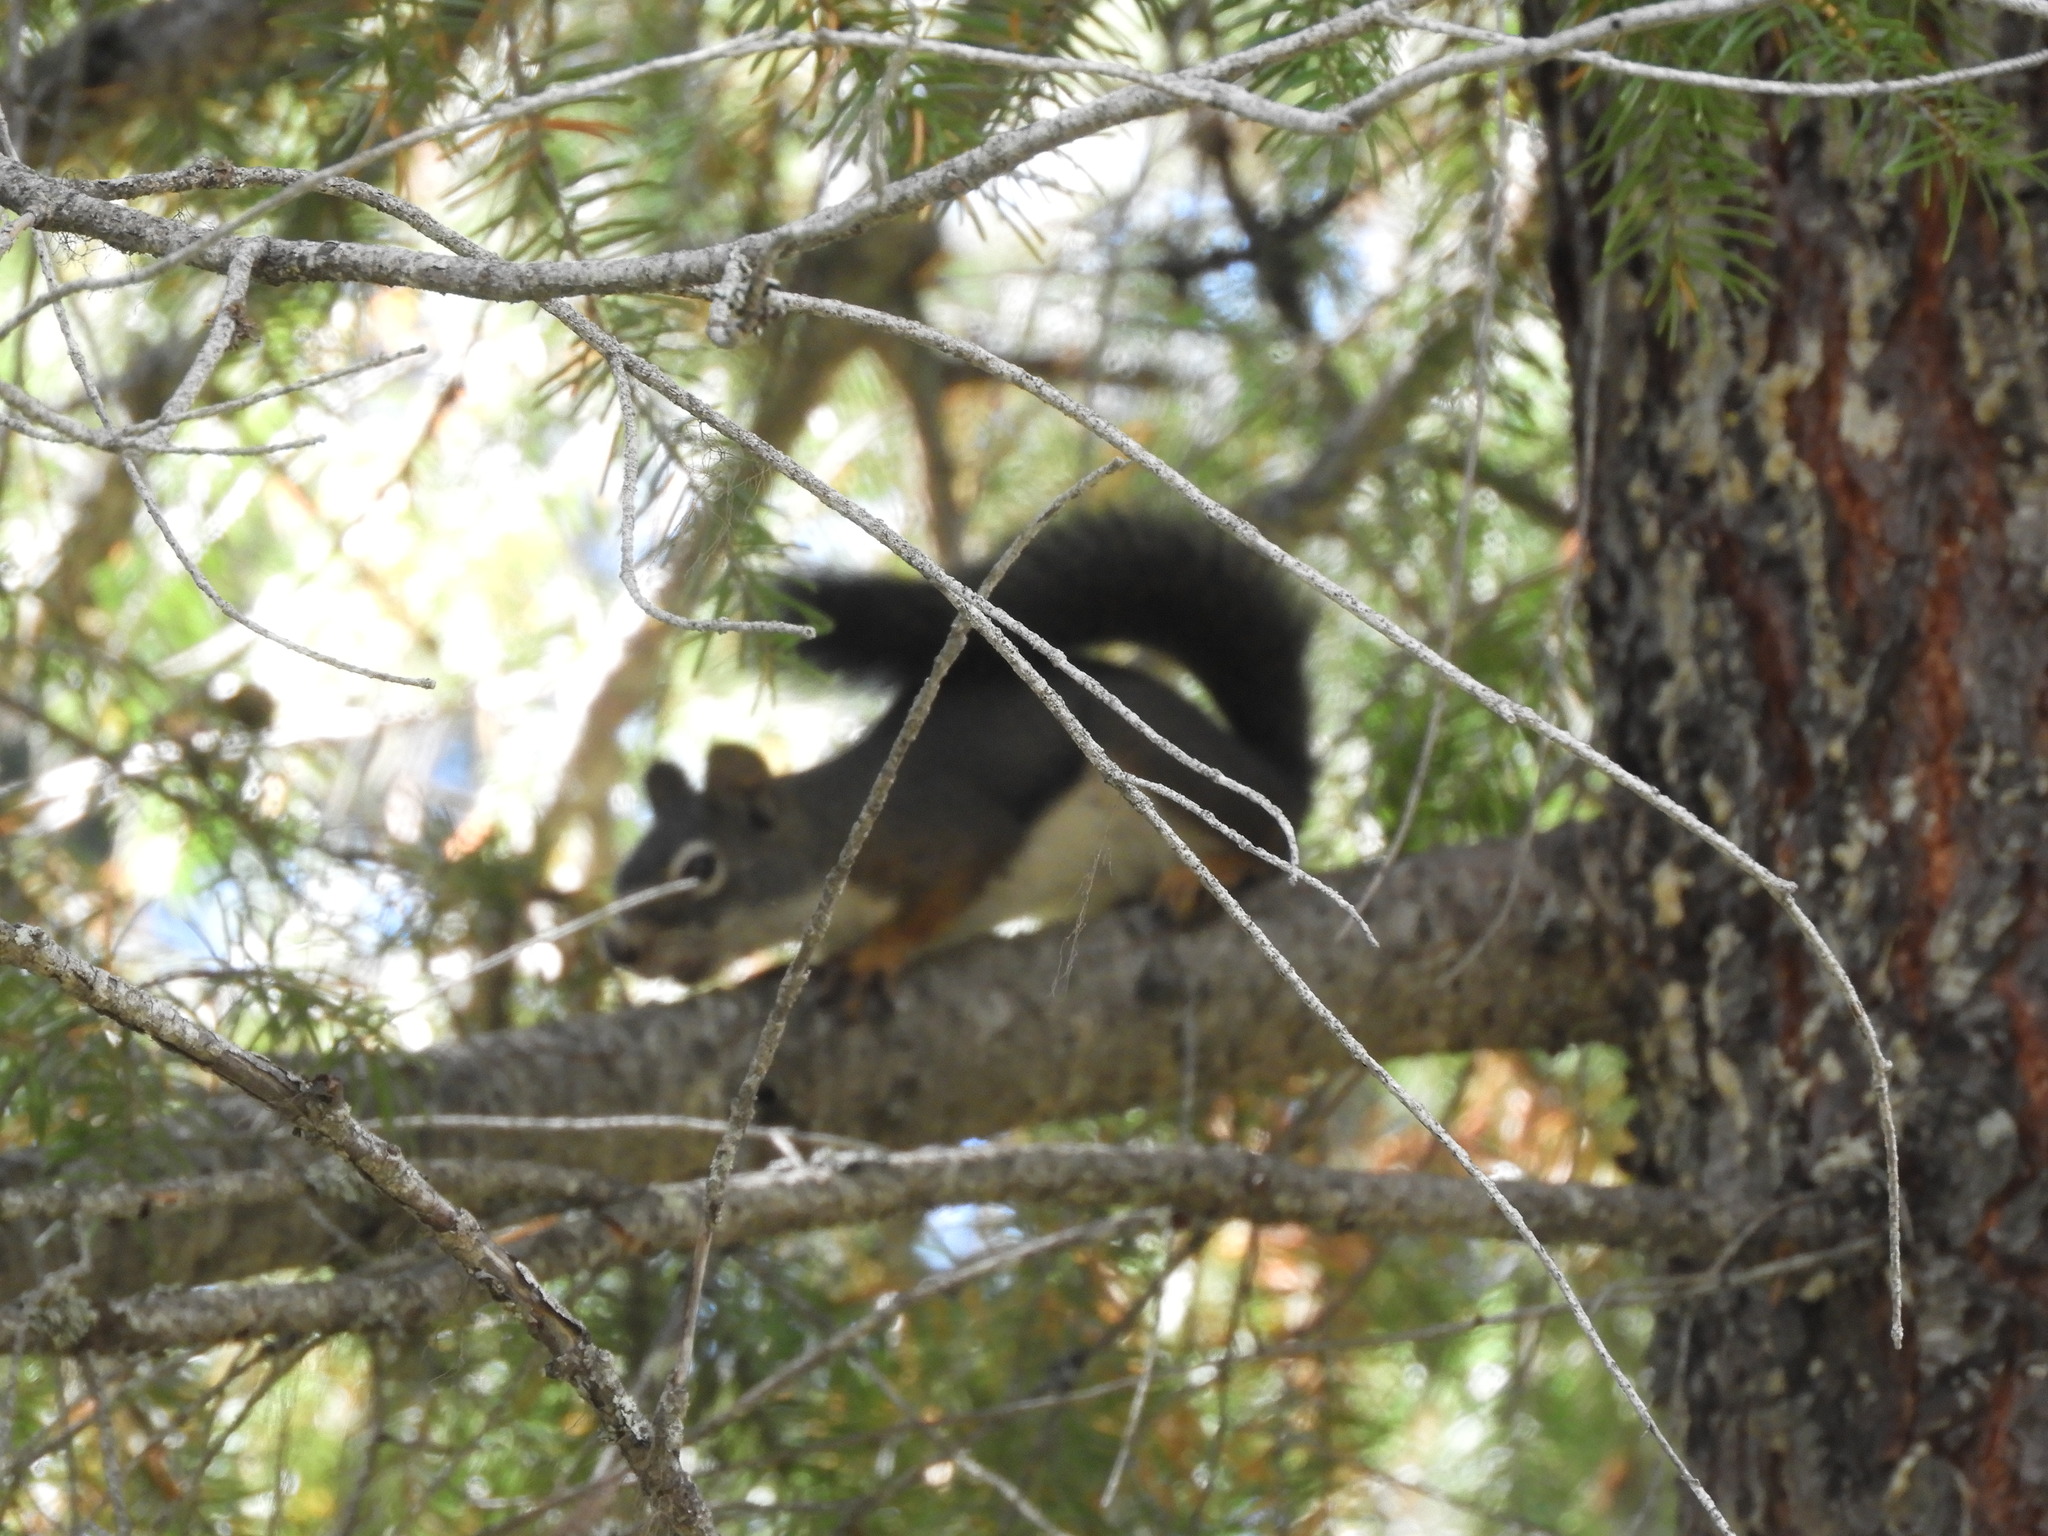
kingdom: Animalia
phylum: Chordata
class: Mammalia
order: Rodentia
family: Sciuridae
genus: Tamiasciurus
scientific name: Tamiasciurus hudsonicus
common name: Red squirrel
